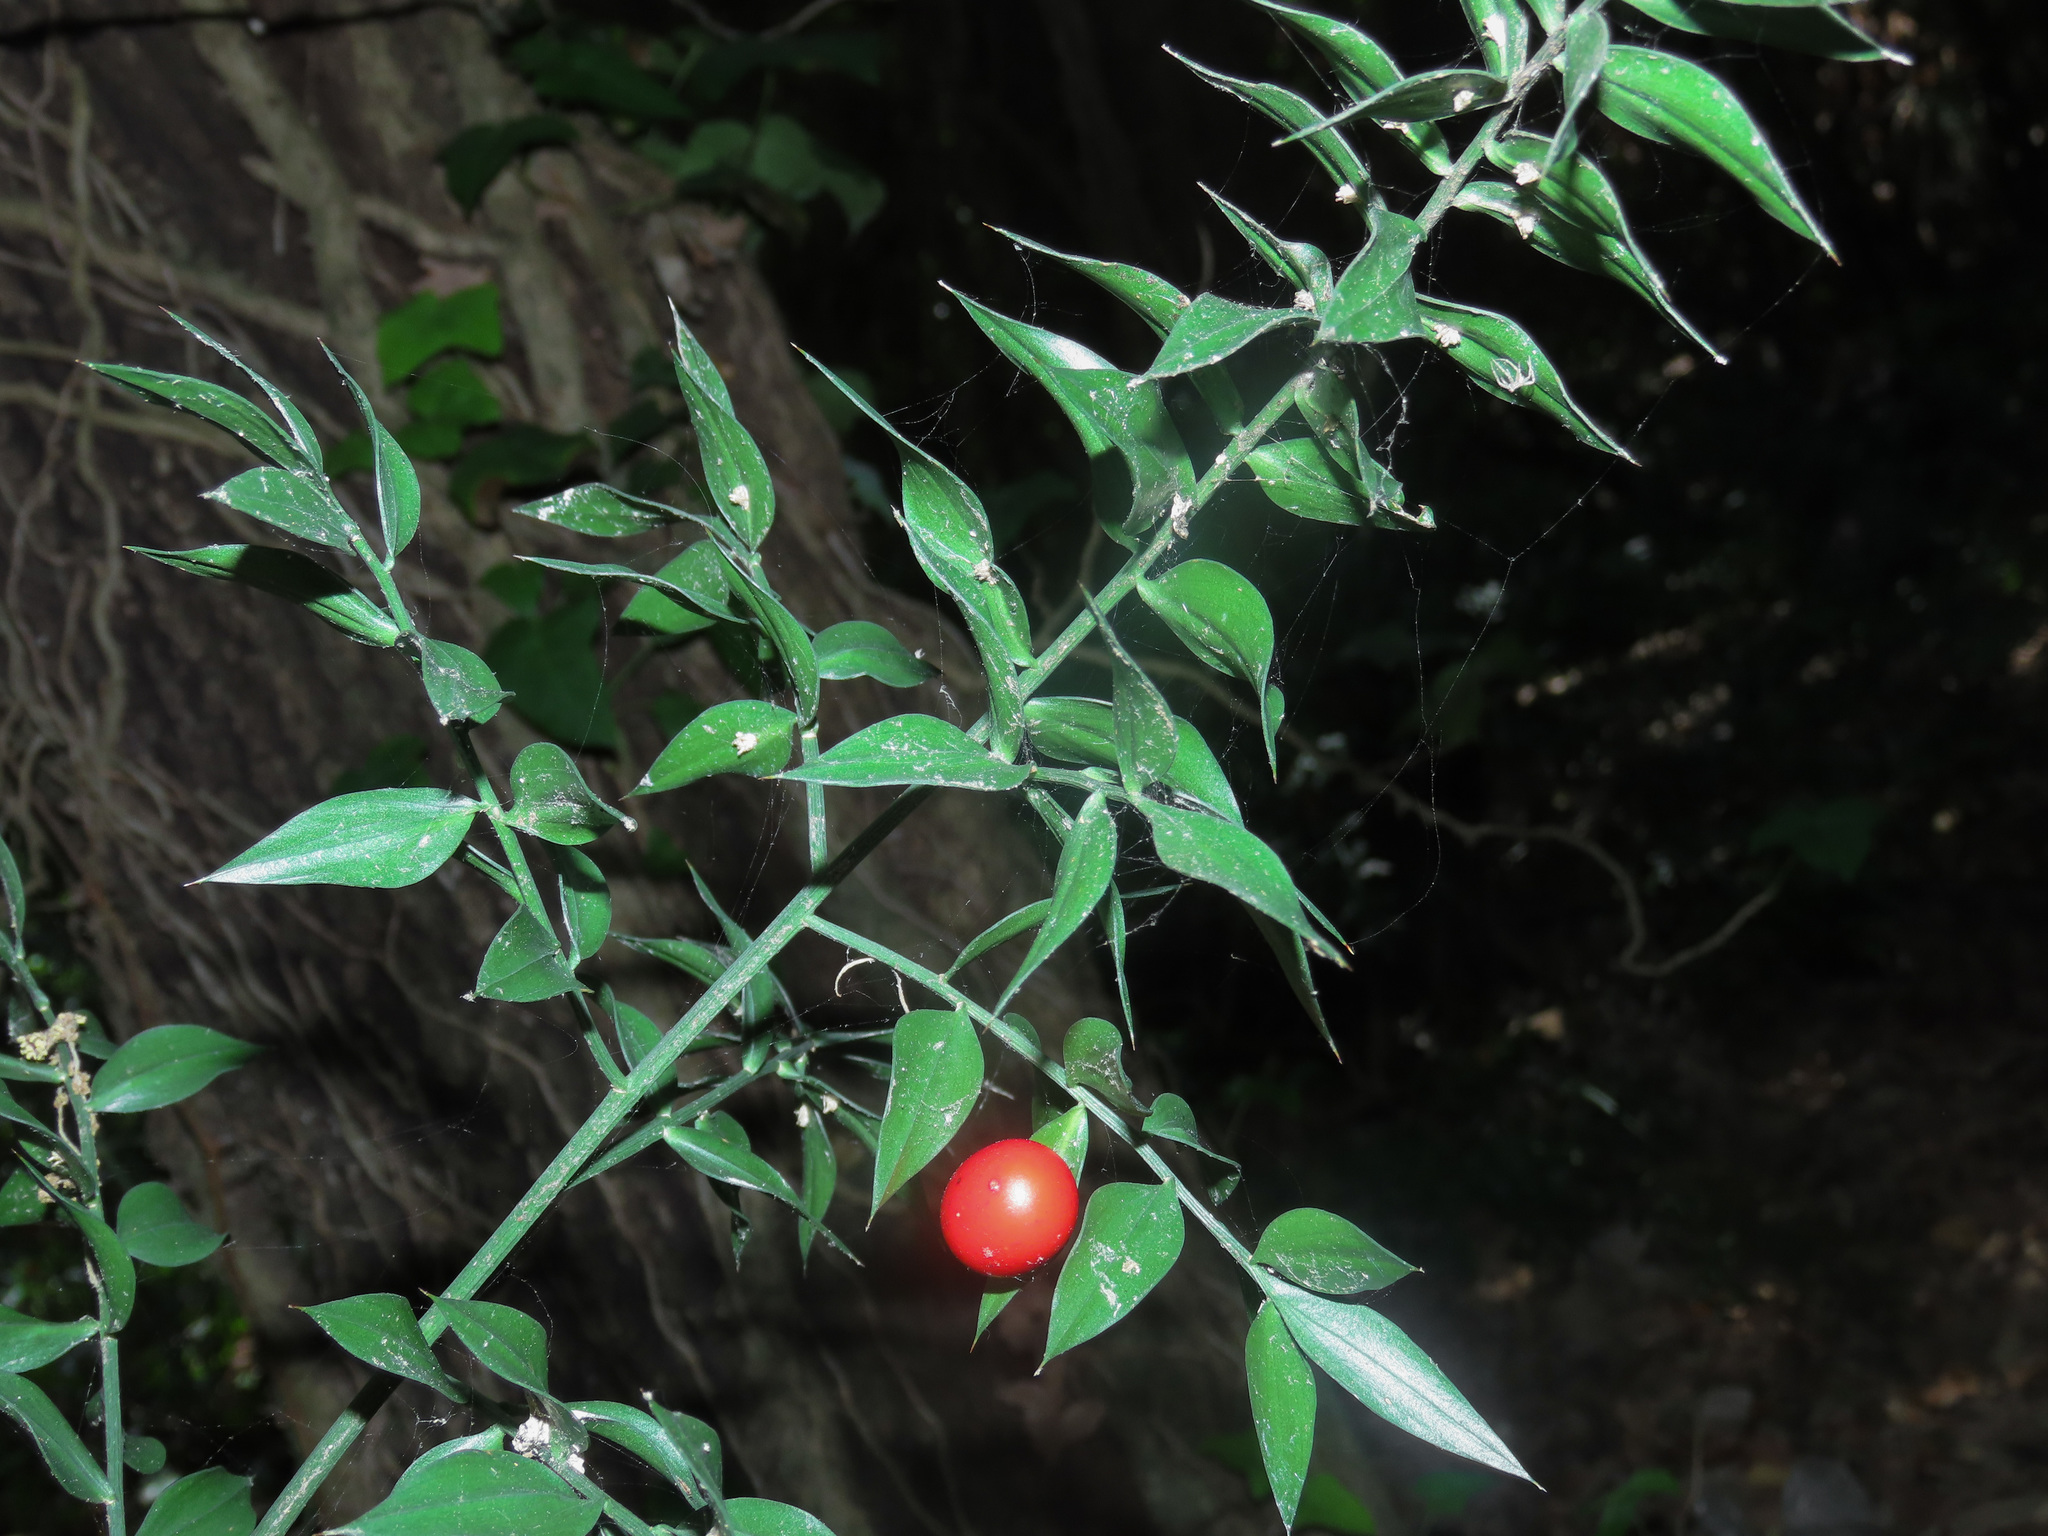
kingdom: Plantae
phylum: Tracheophyta
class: Liliopsida
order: Asparagales
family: Asparagaceae
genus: Ruscus
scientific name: Ruscus aculeatus
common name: Butcher's-broom
